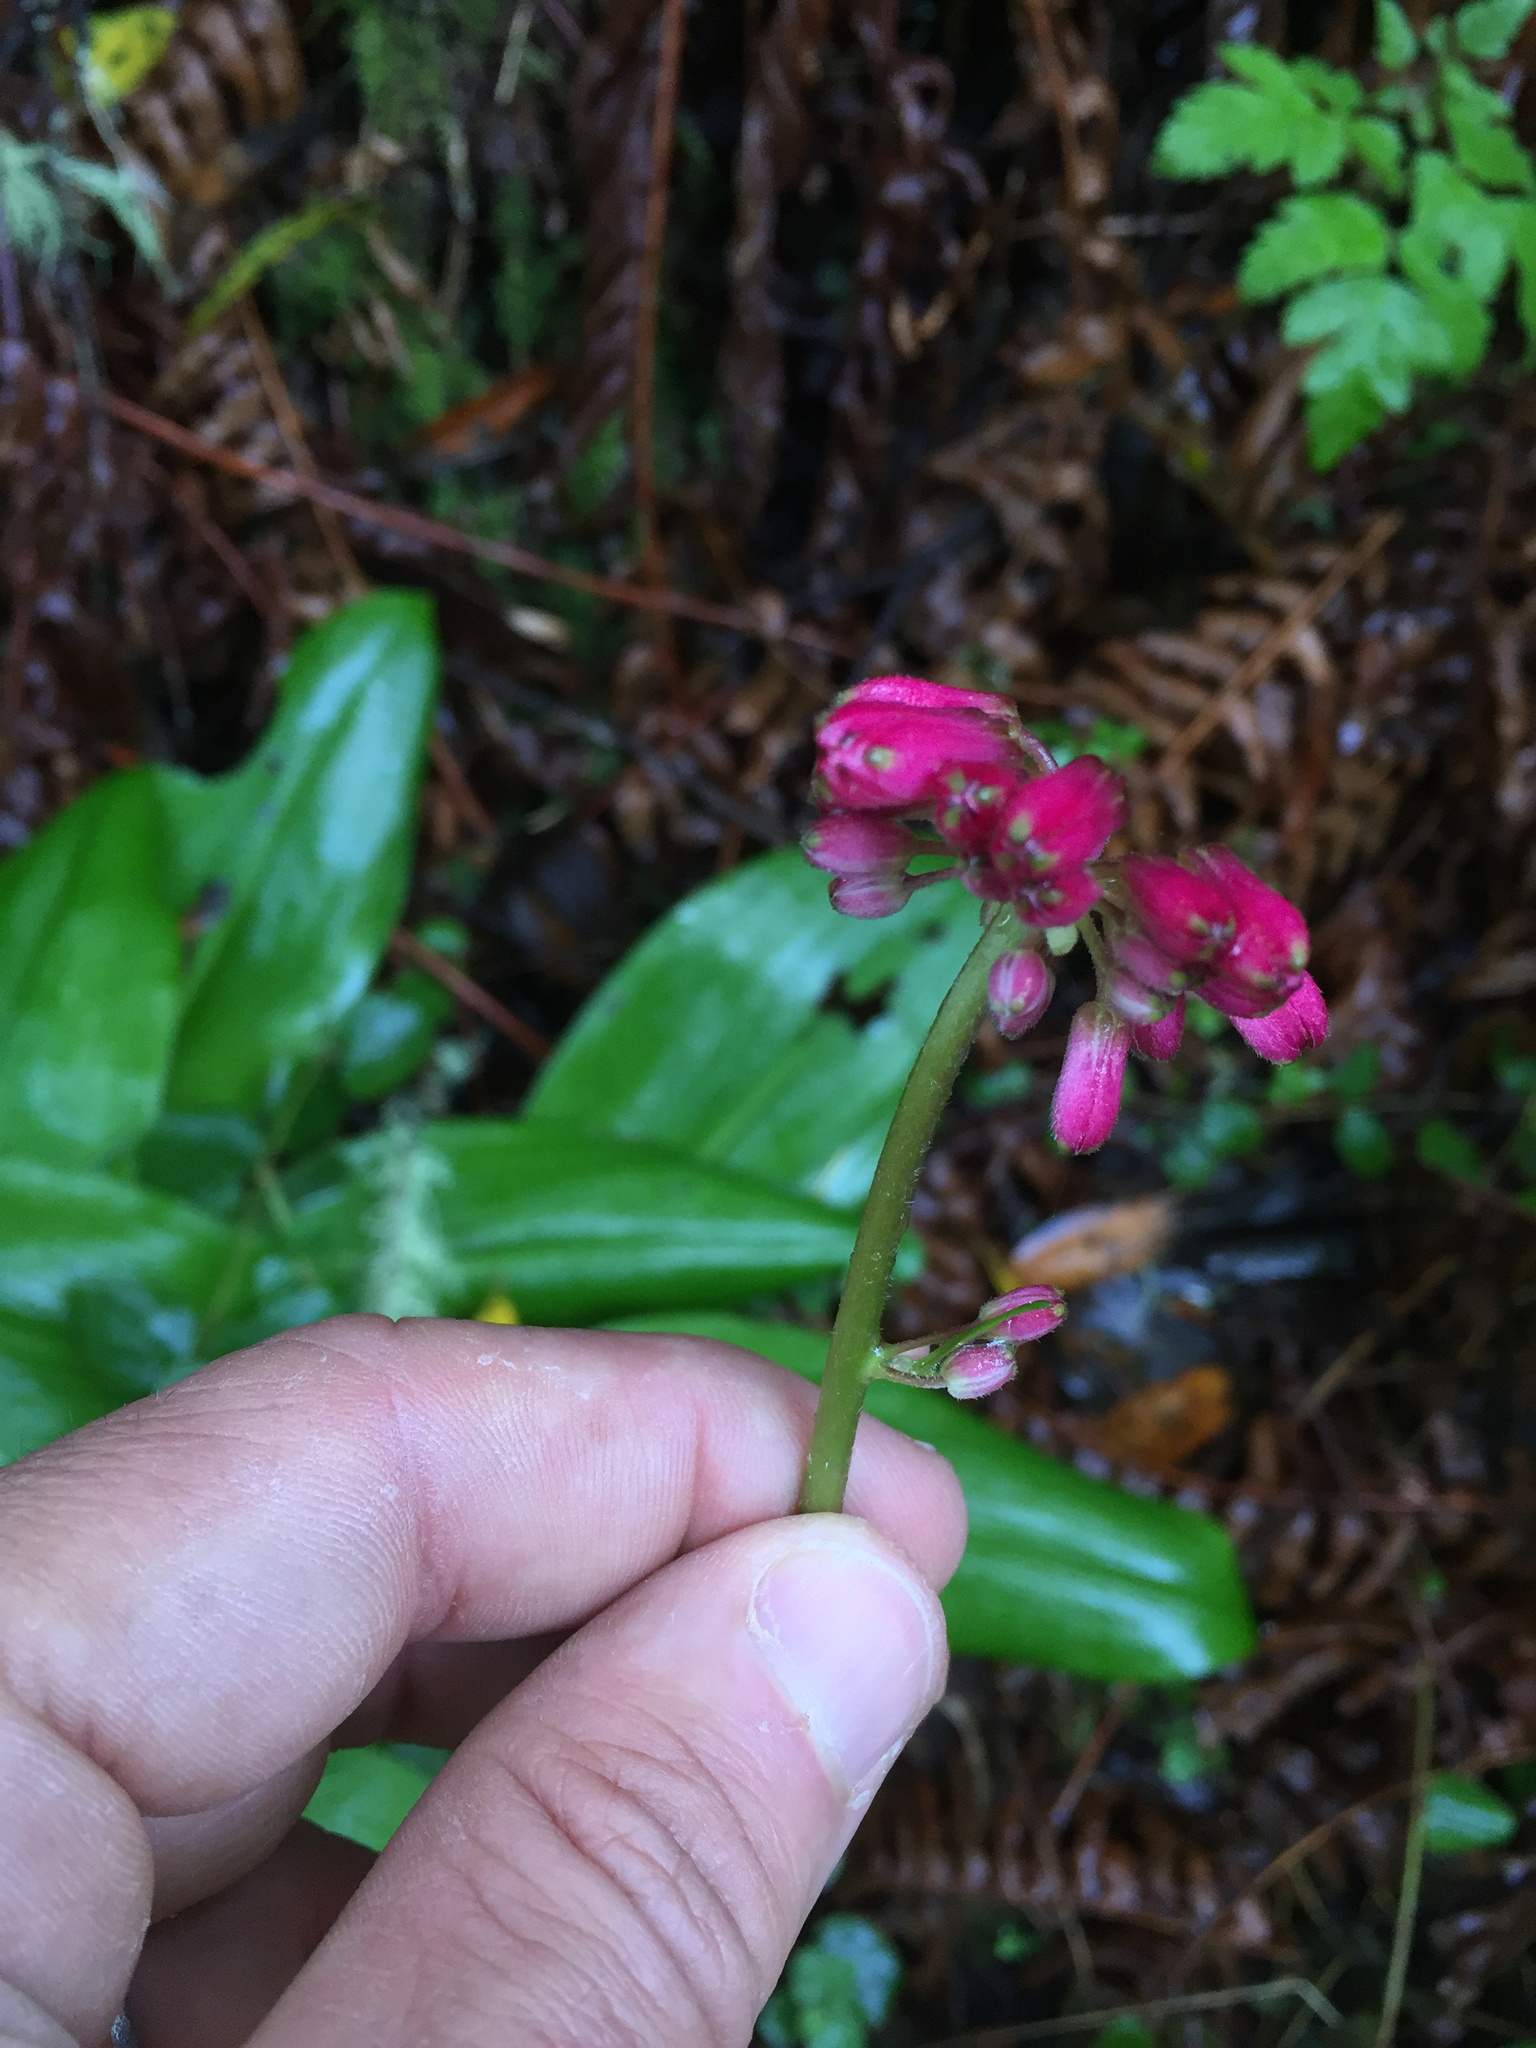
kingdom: Plantae
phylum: Tracheophyta
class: Liliopsida
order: Liliales
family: Liliaceae
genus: Clintonia
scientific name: Clintonia andrewsiana
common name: Red clintonia
